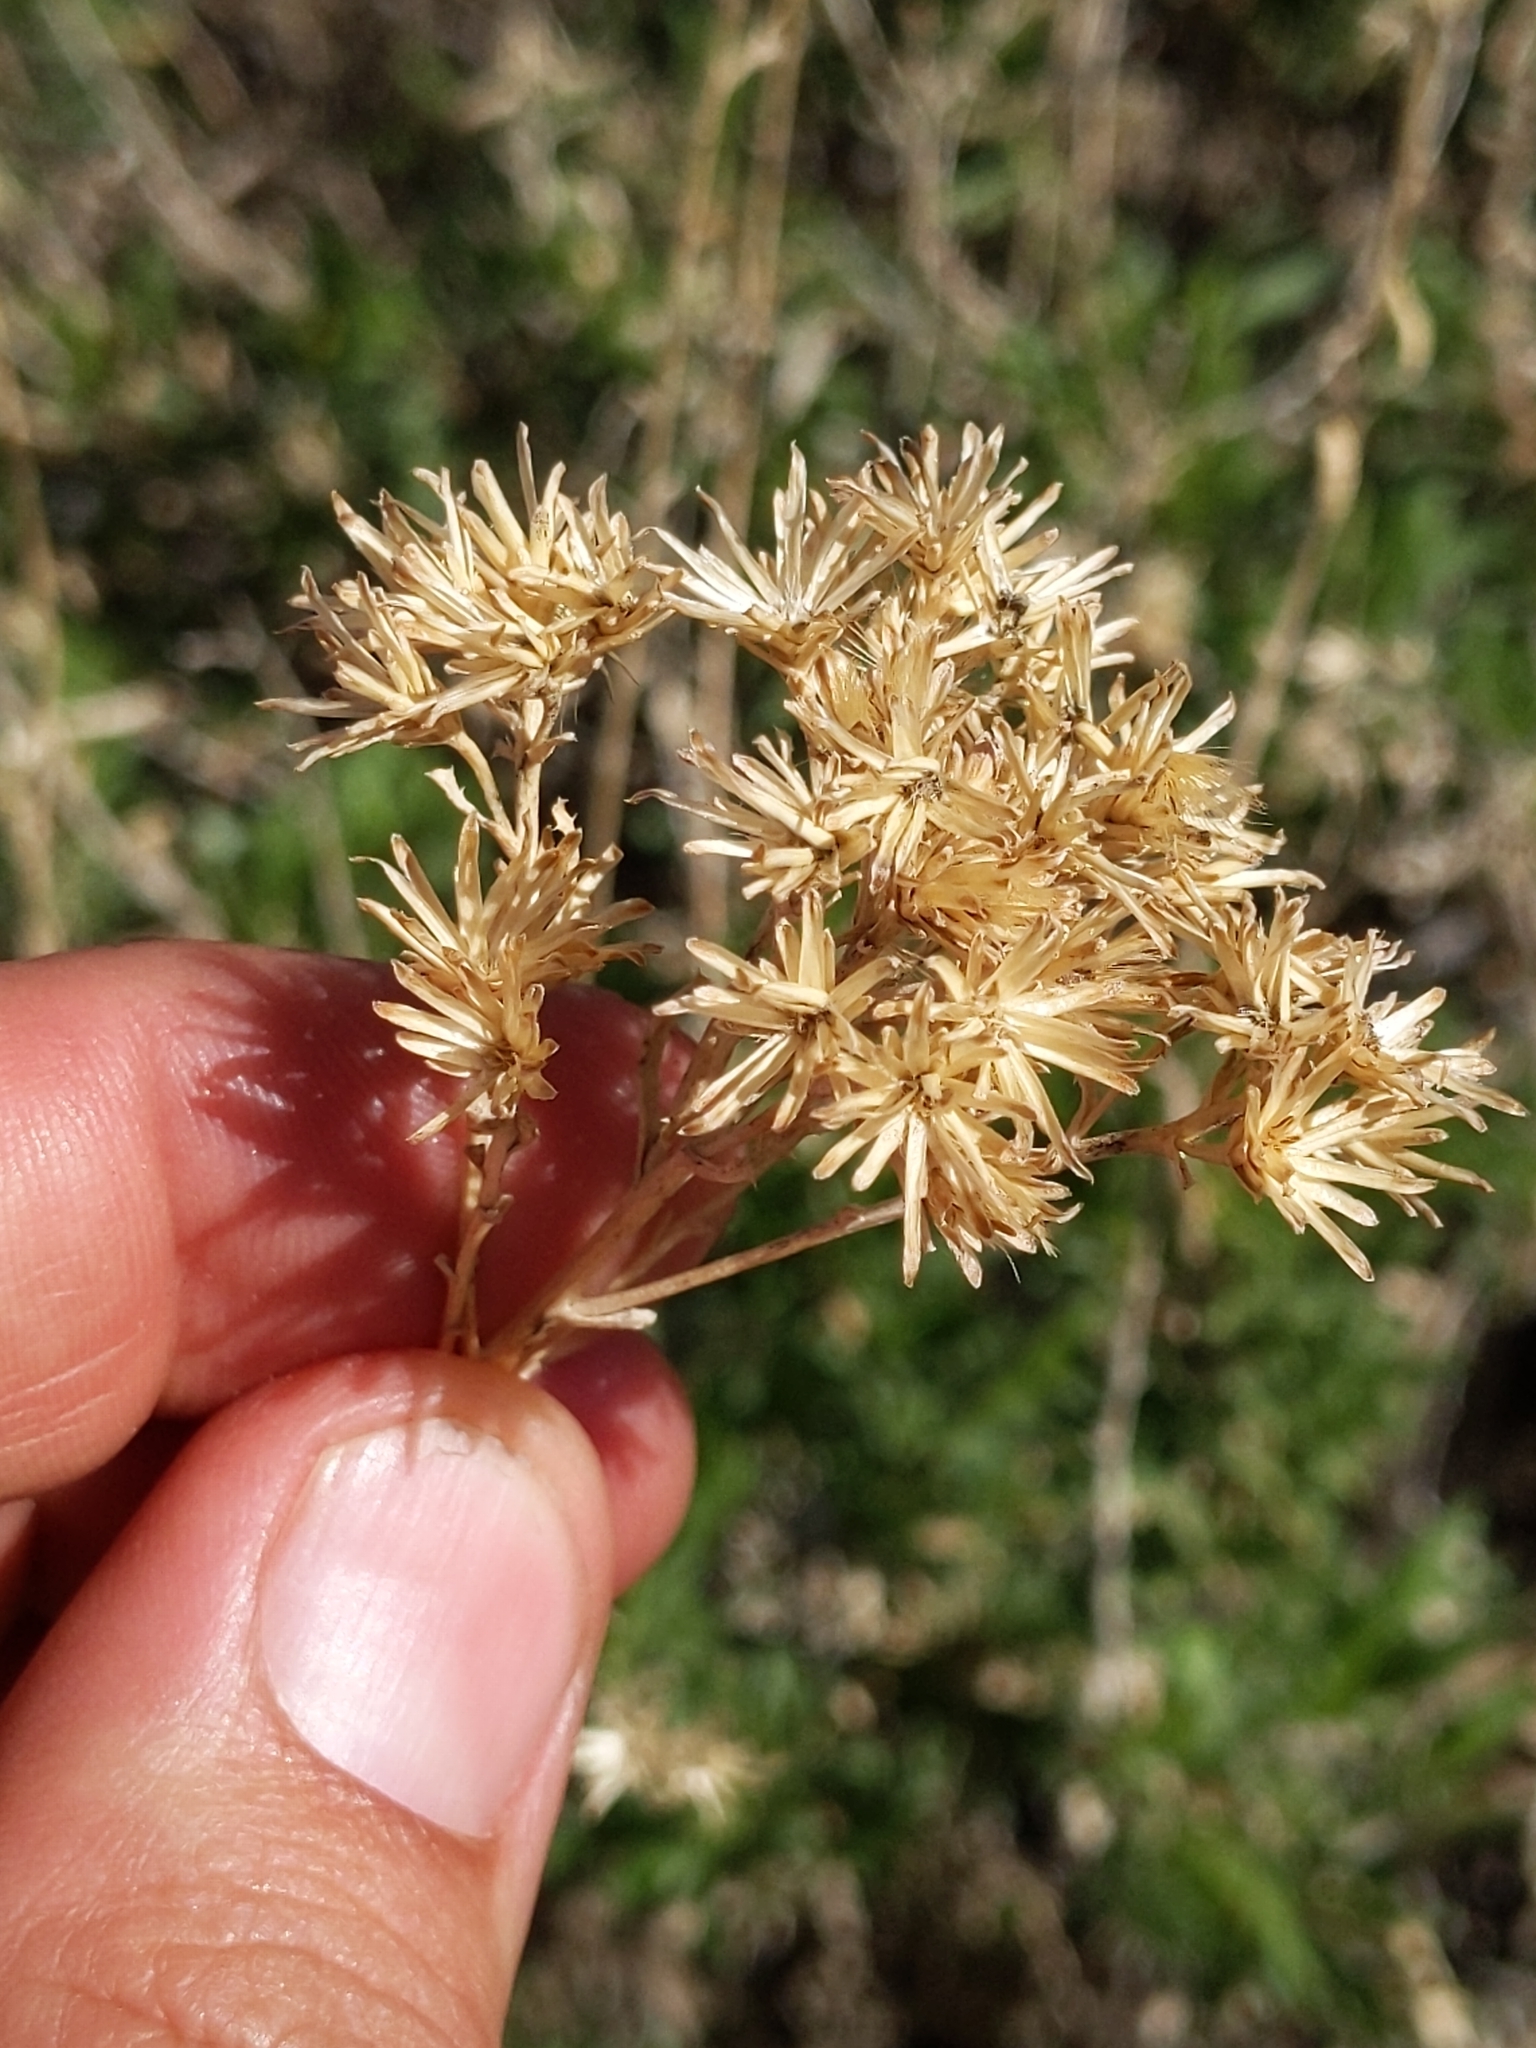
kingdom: Plantae
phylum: Tracheophyta
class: Magnoliopsida
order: Asterales
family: Asteraceae
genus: Isocoma
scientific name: Isocoma acradenia
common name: Alkali jimmyweed
